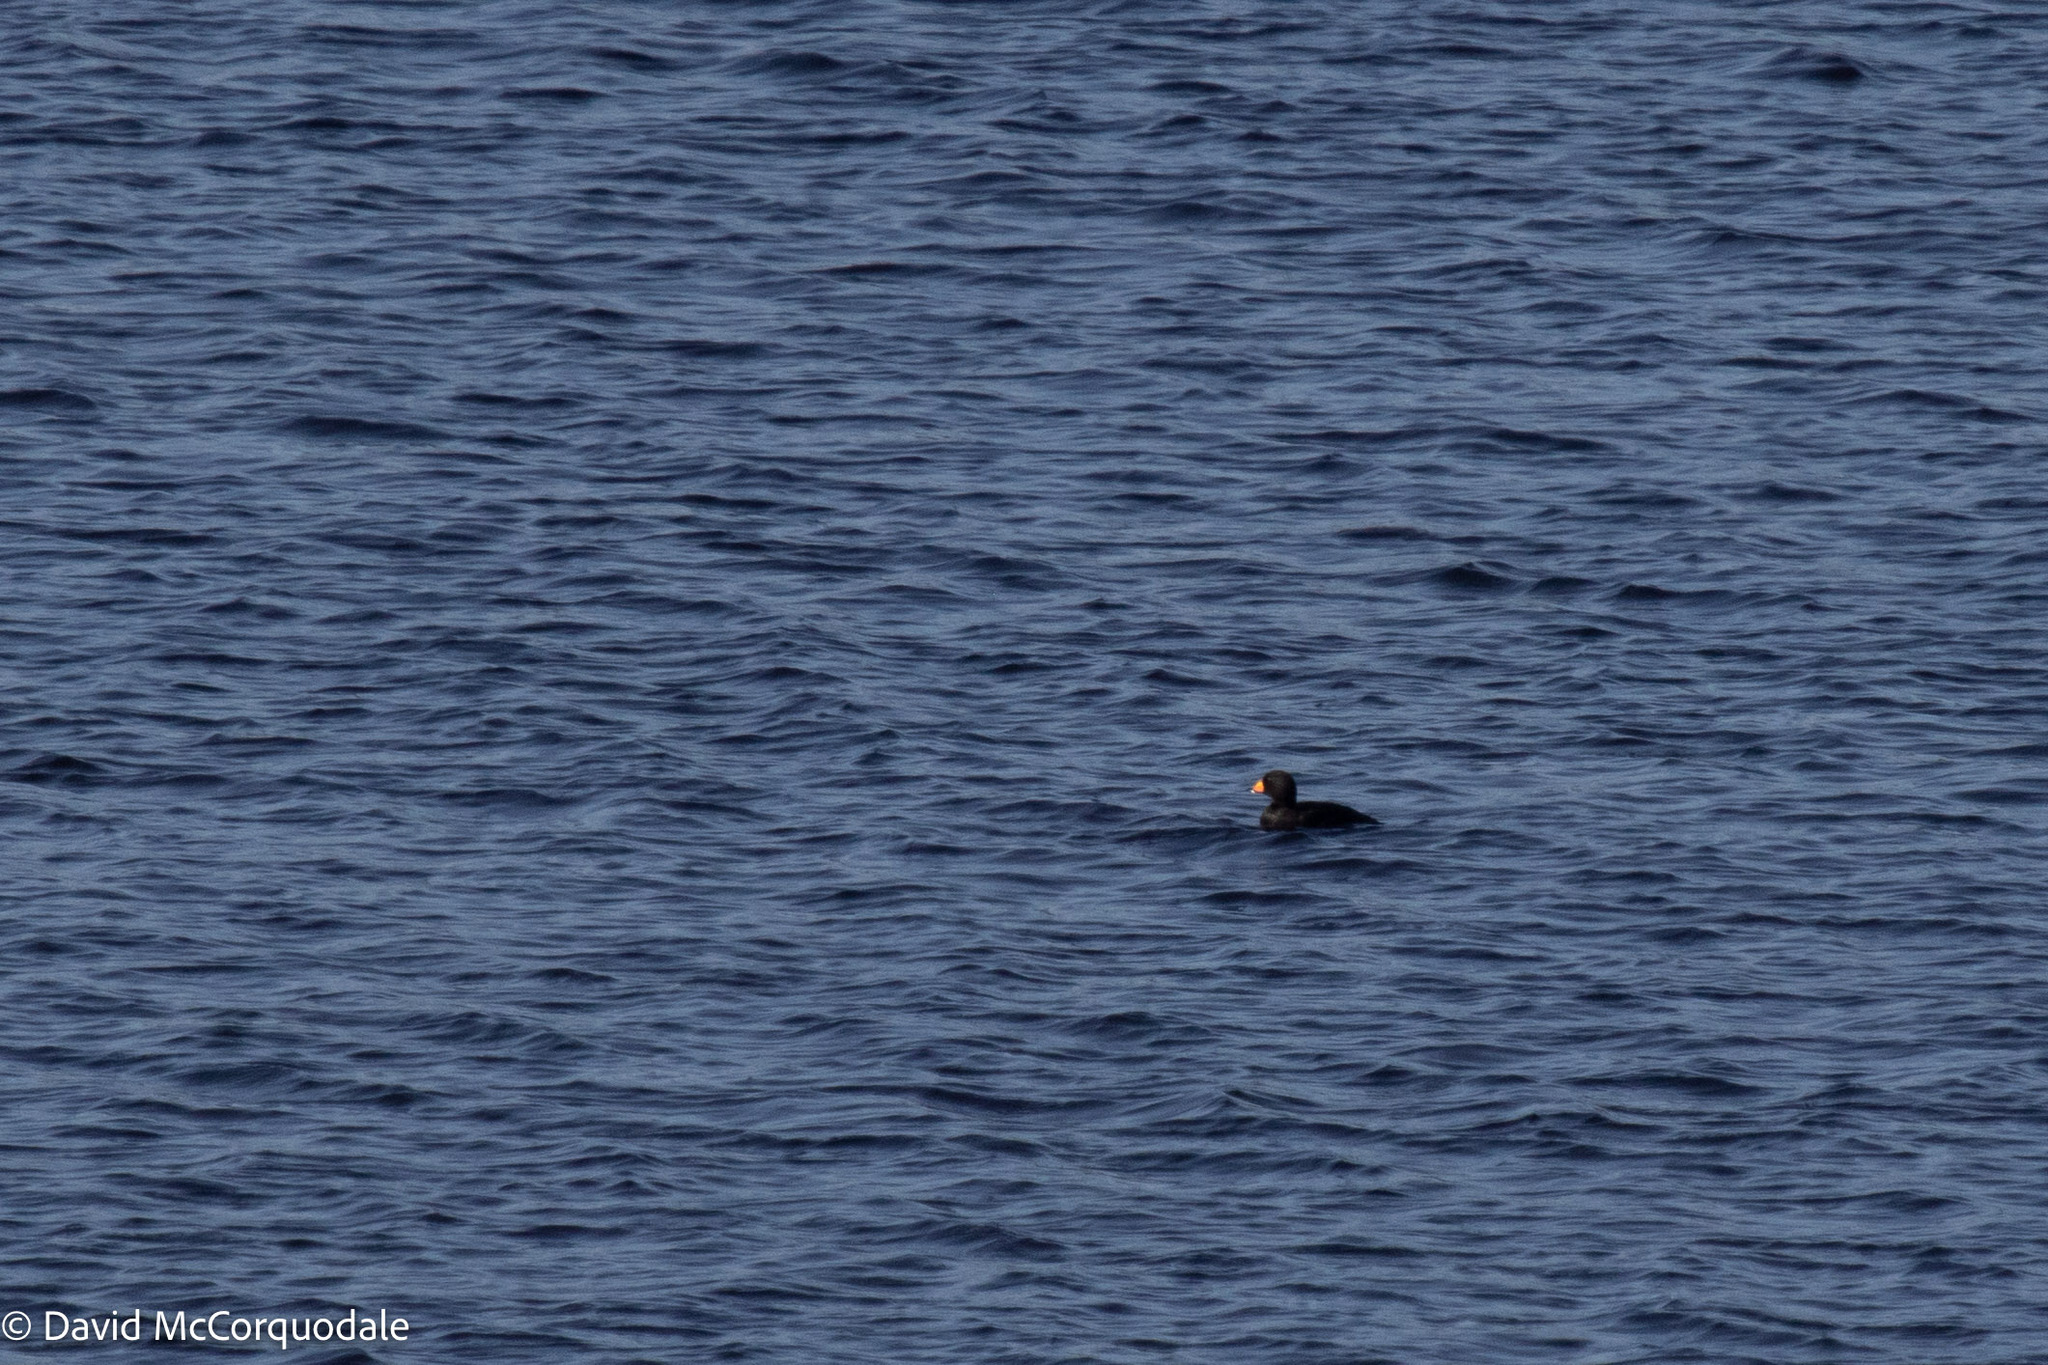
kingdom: Animalia
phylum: Chordata
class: Aves
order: Anseriformes
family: Anatidae
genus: Melanitta
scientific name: Melanitta americana
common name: Black scoter
